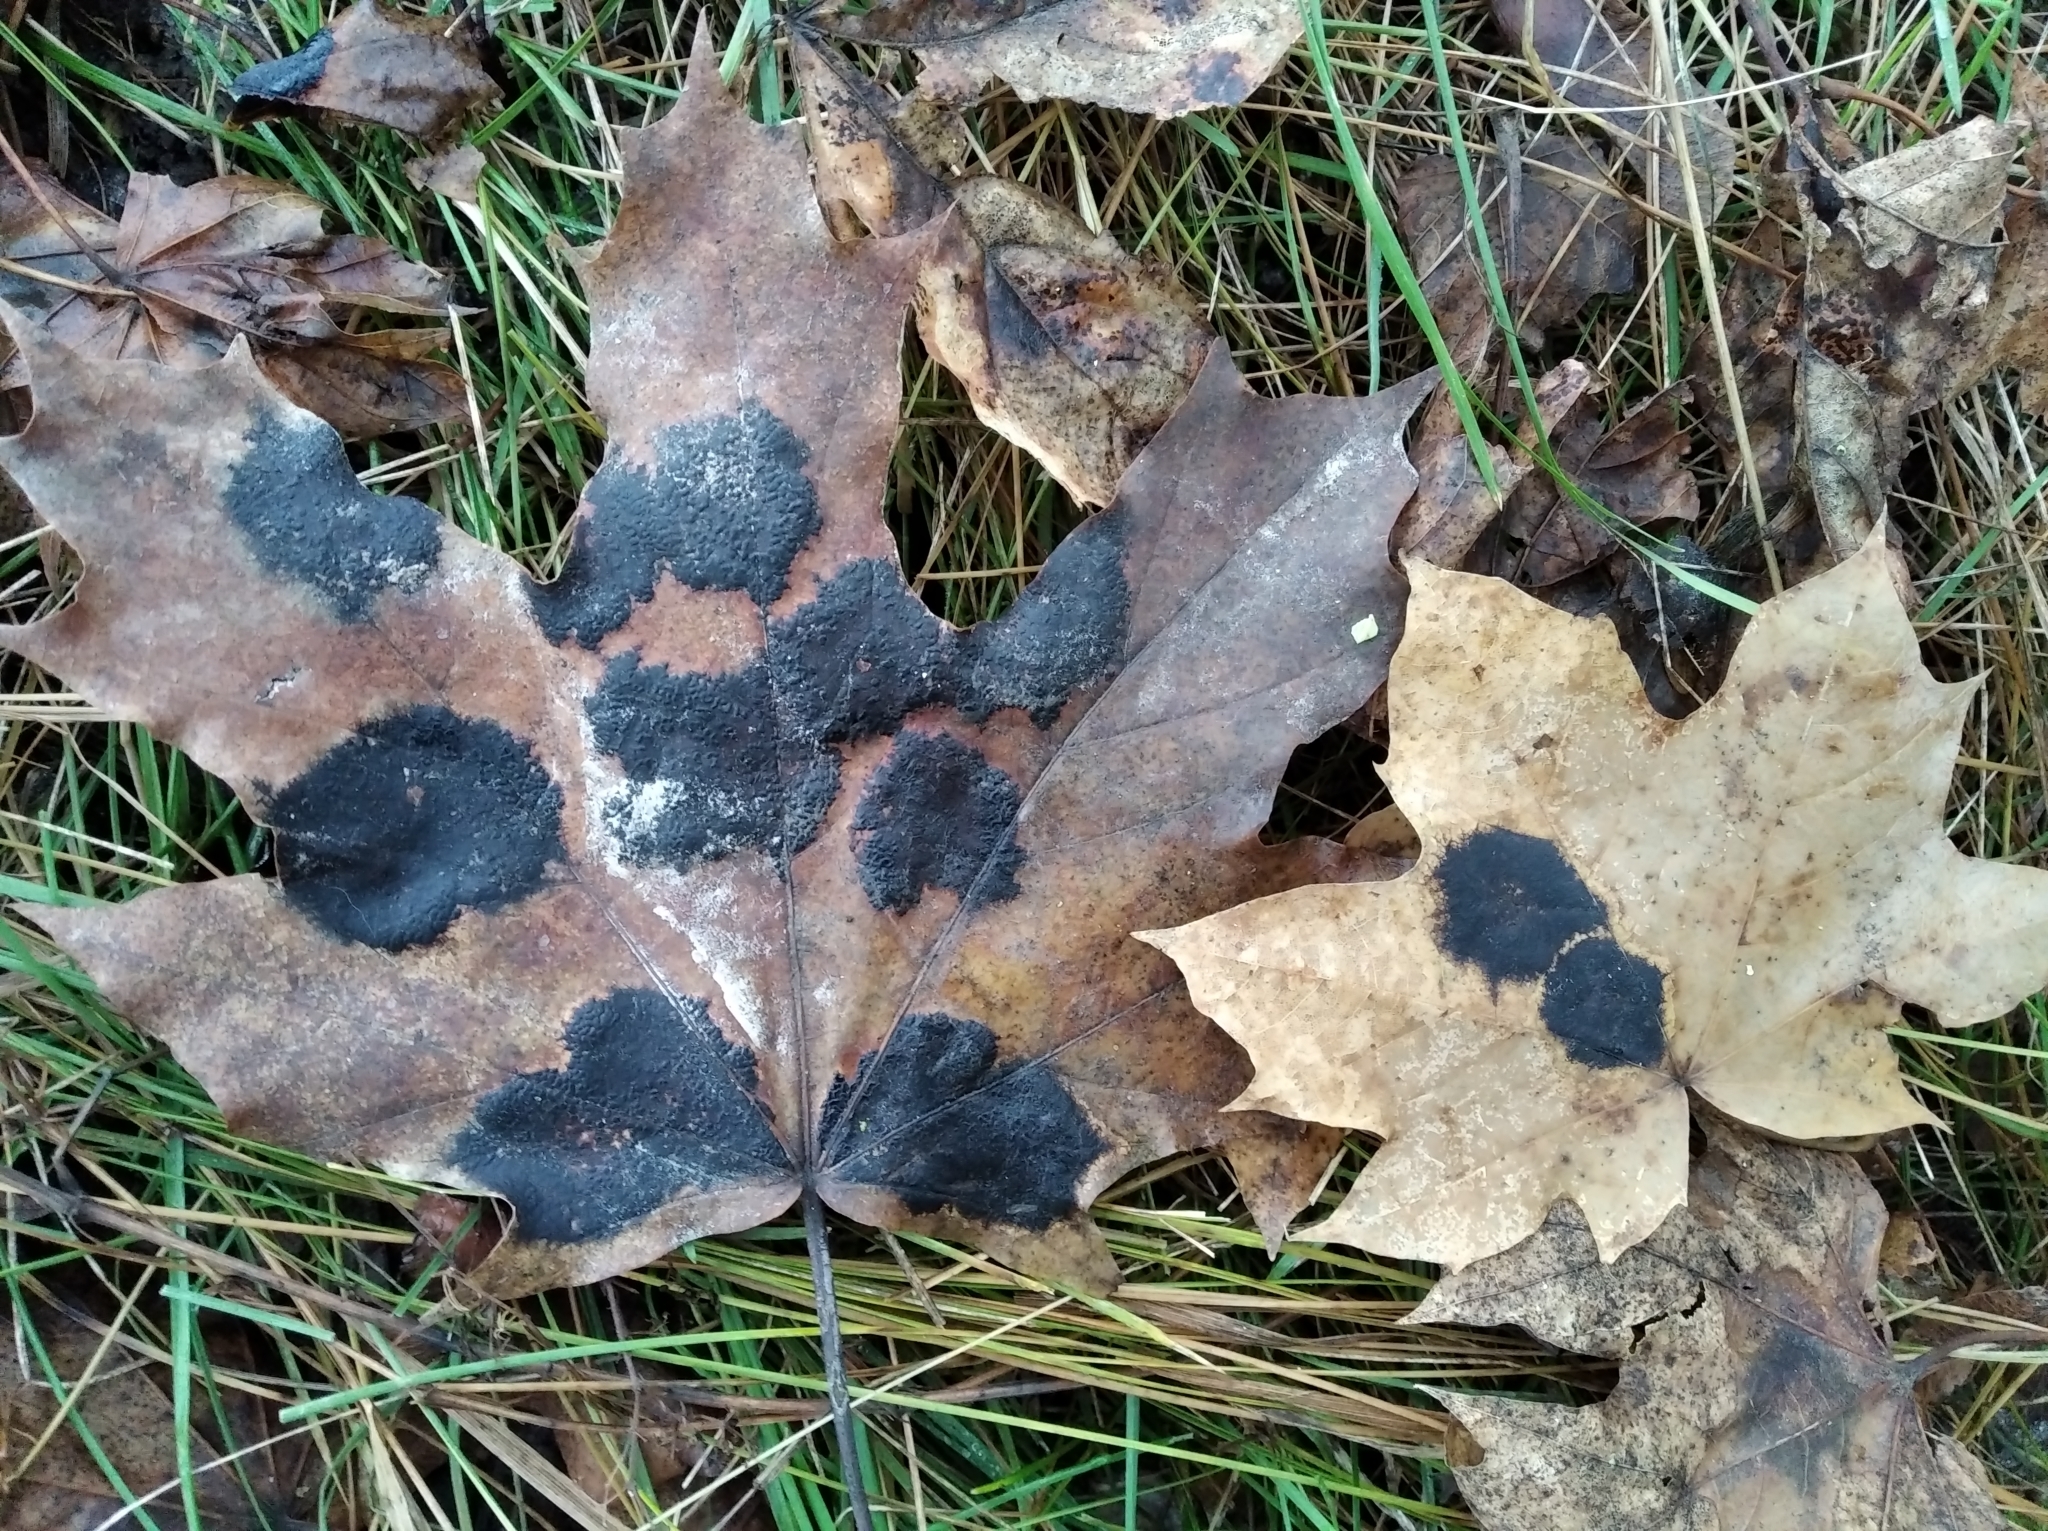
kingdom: Fungi
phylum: Ascomycota
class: Leotiomycetes
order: Rhytismatales
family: Rhytismataceae
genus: Rhytisma
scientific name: Rhytisma acerinum
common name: European tar spot
